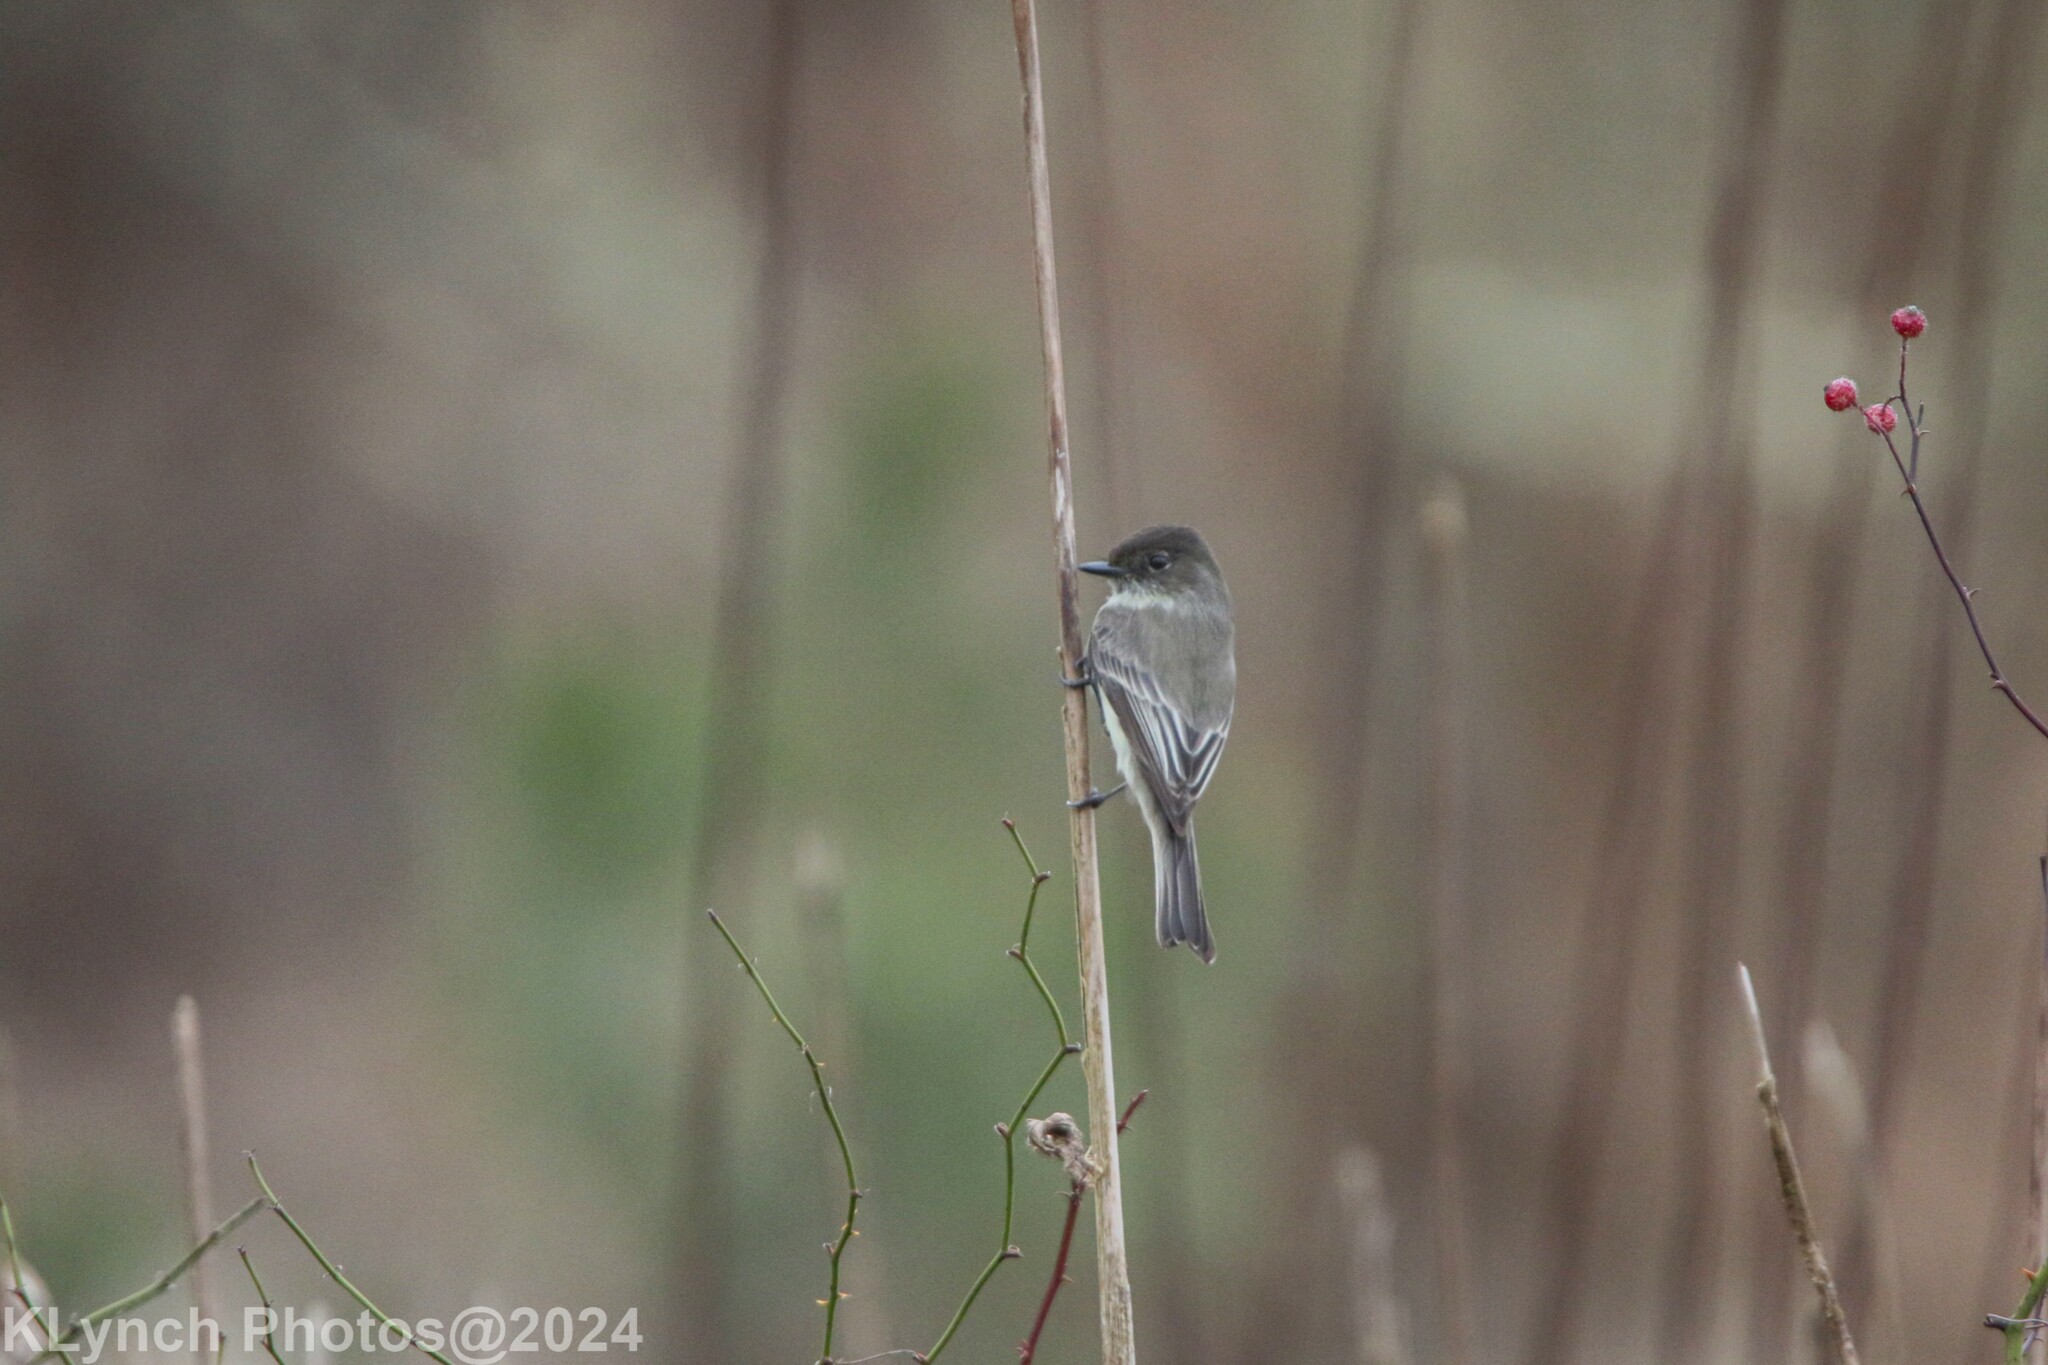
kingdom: Animalia
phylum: Chordata
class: Aves
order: Passeriformes
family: Tyrannidae
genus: Sayornis
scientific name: Sayornis phoebe
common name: Eastern phoebe
